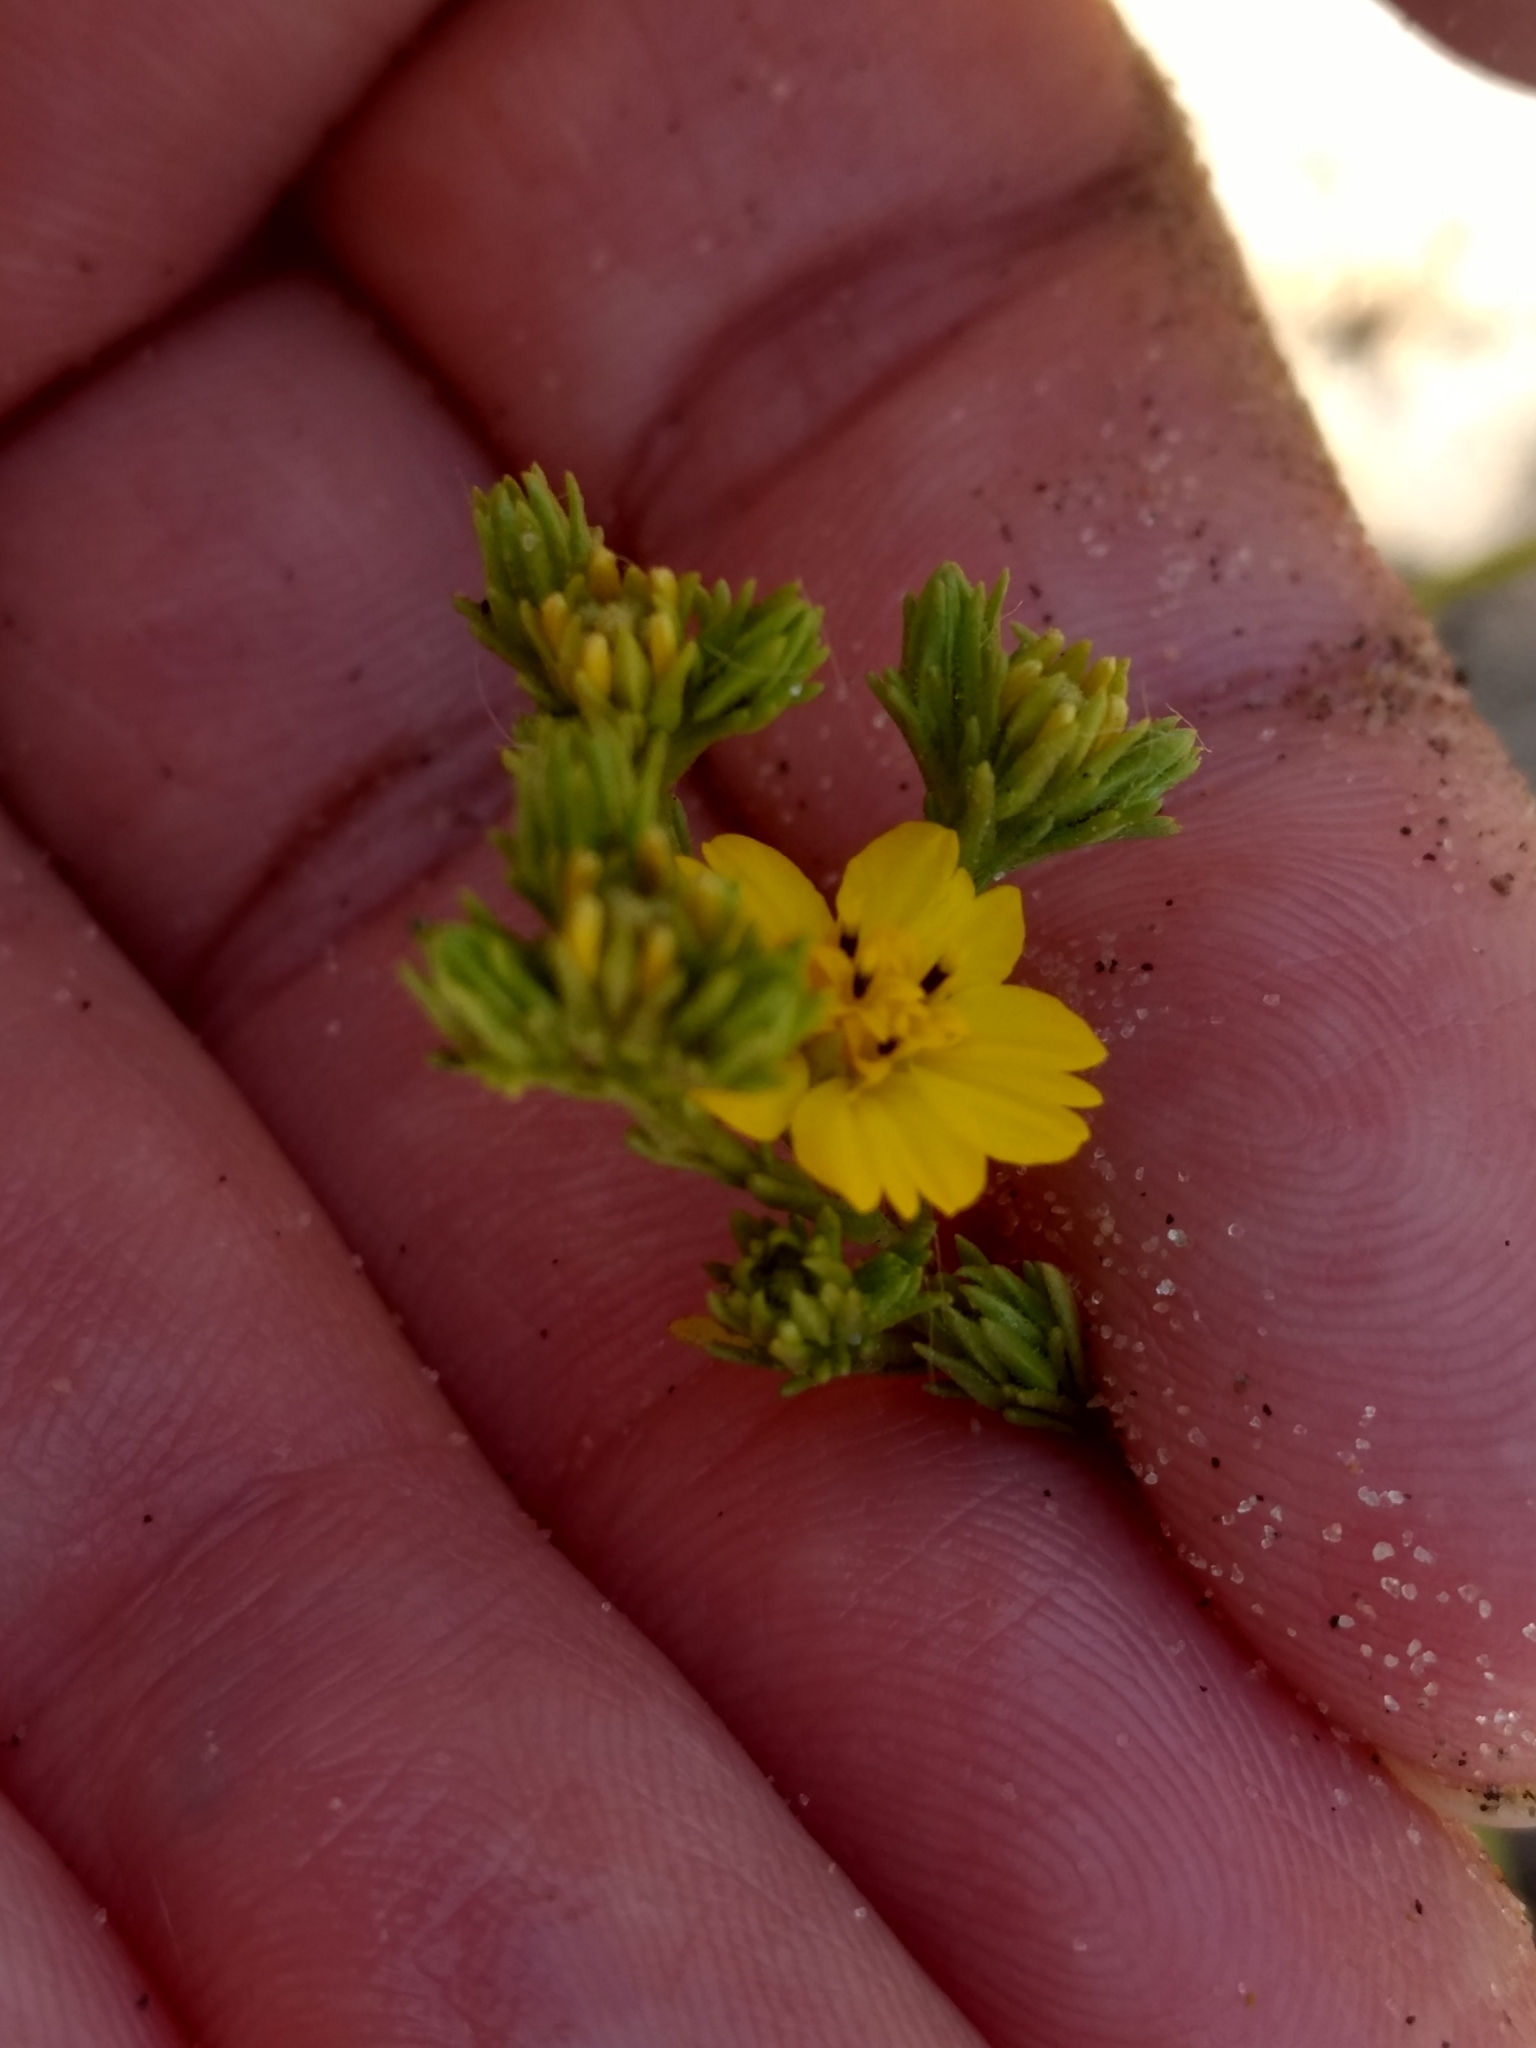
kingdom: Plantae
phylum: Tracheophyta
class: Magnoliopsida
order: Asterales
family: Asteraceae
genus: Deinandra
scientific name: Deinandra fasciculata
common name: Clustered tarweed
